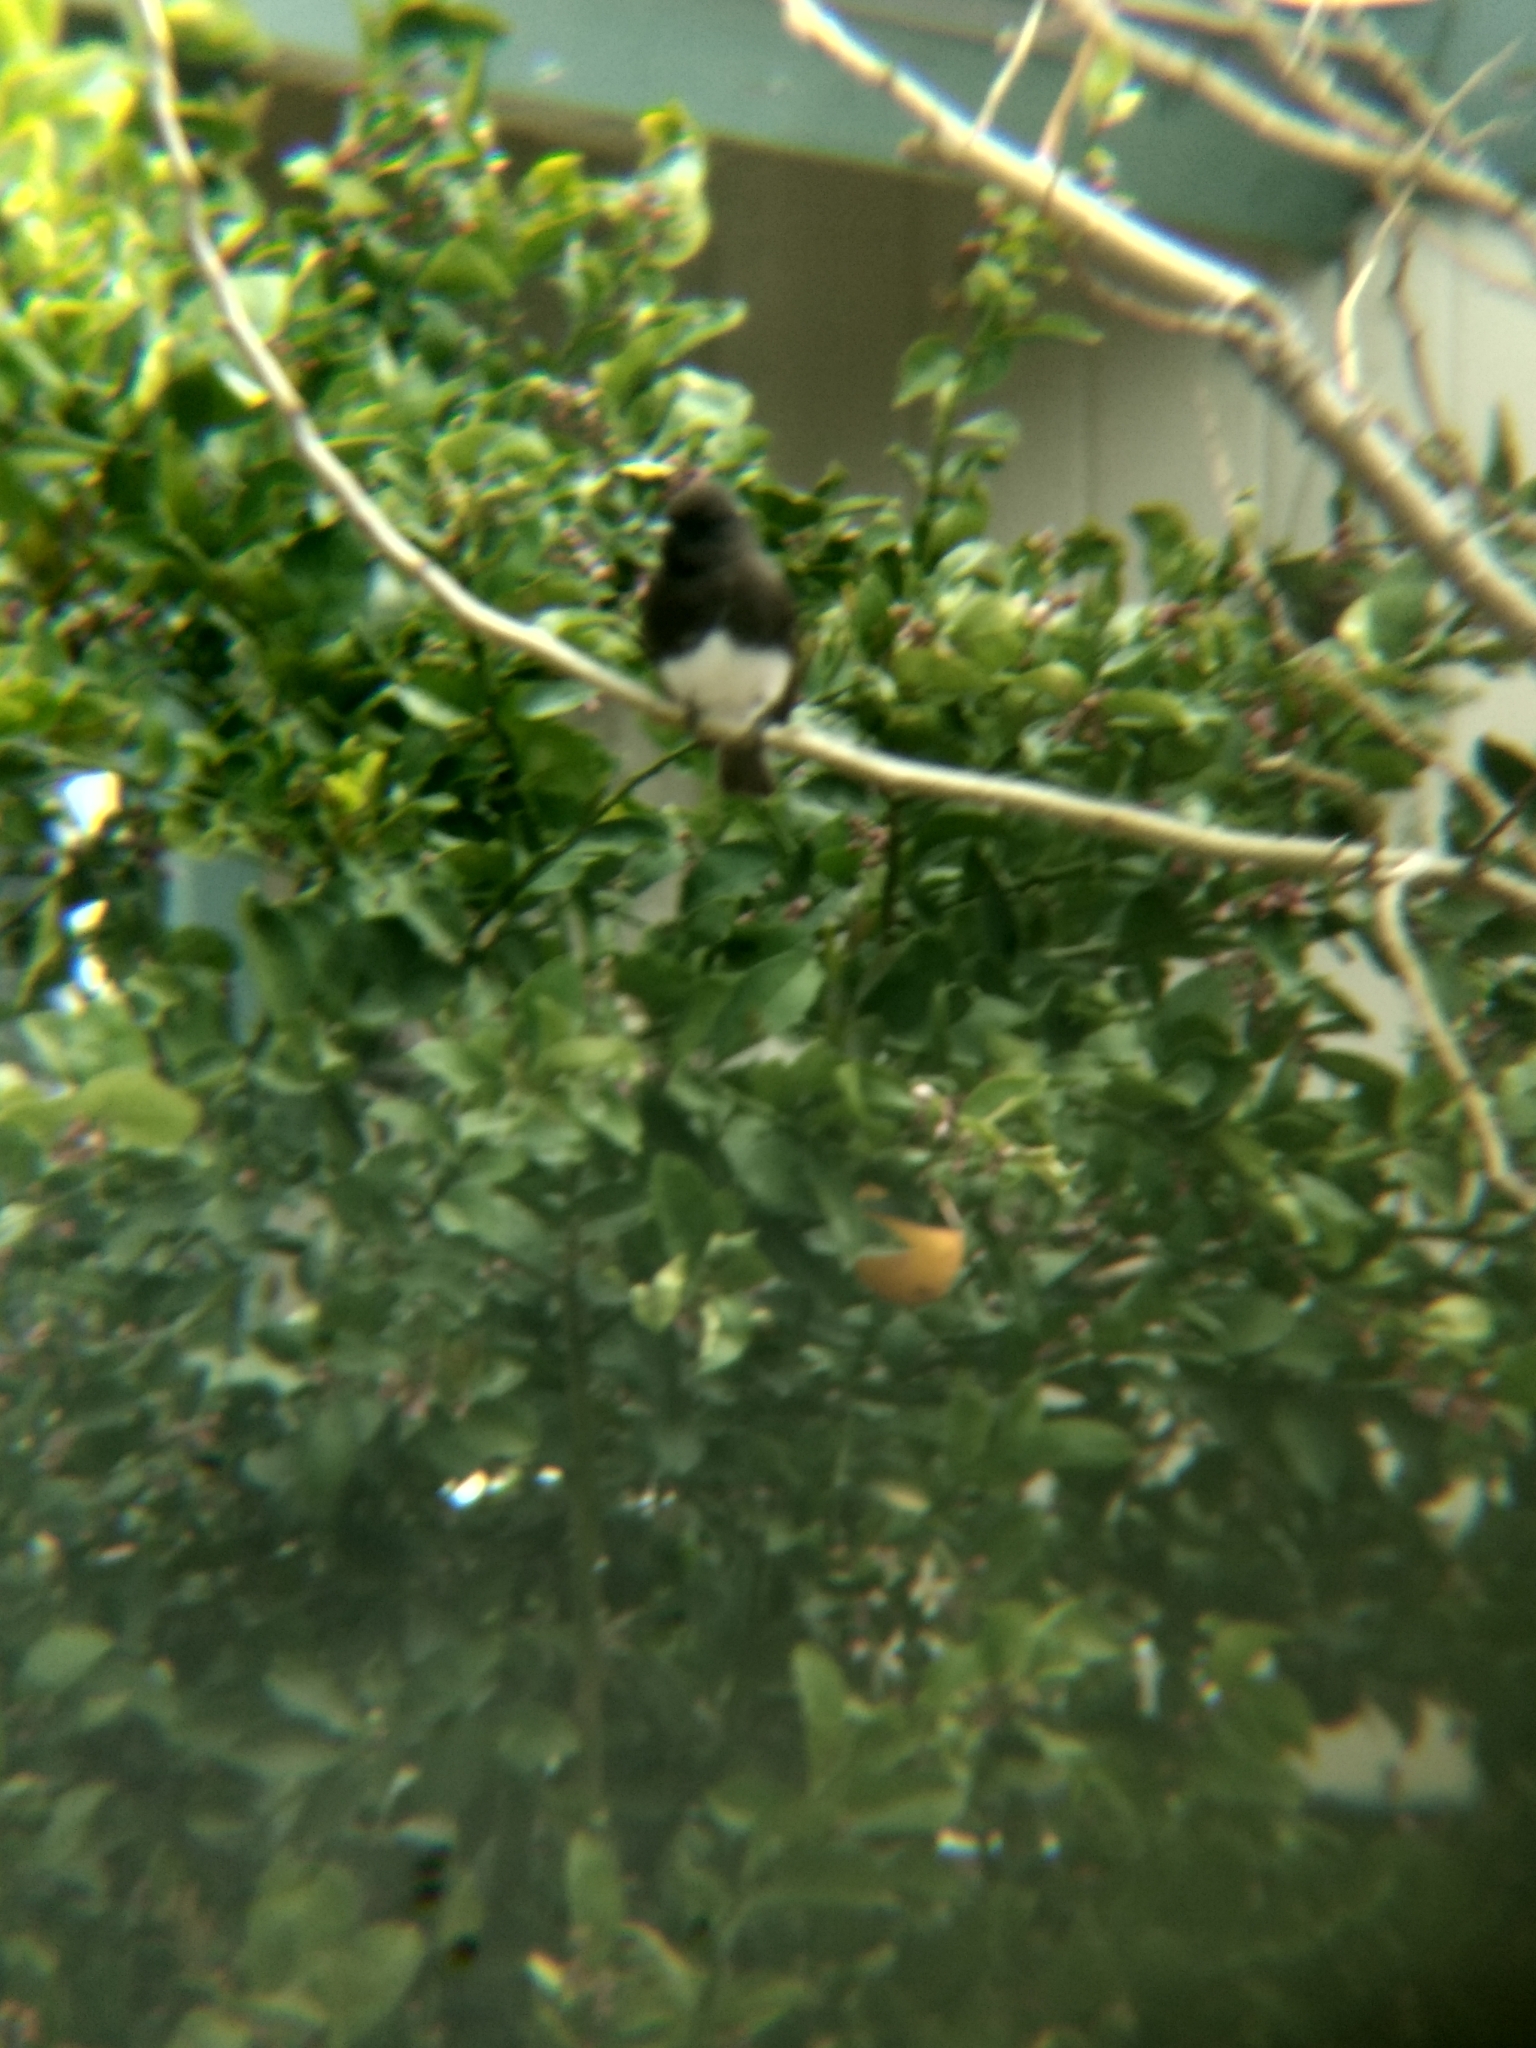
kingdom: Animalia
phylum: Chordata
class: Aves
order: Passeriformes
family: Tyrannidae
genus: Sayornis
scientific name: Sayornis nigricans
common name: Black phoebe
